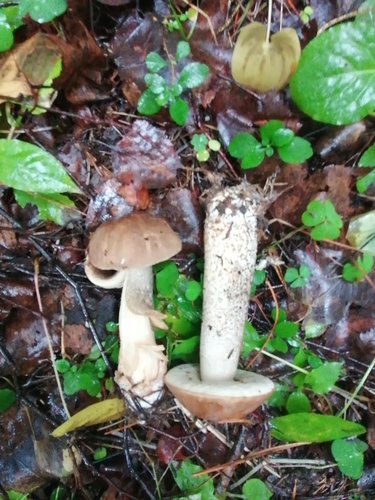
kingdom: Fungi
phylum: Basidiomycota
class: Agaricomycetes
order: Boletales
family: Boletaceae
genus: Leccinum
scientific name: Leccinum scabrum
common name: Blushing bolete
